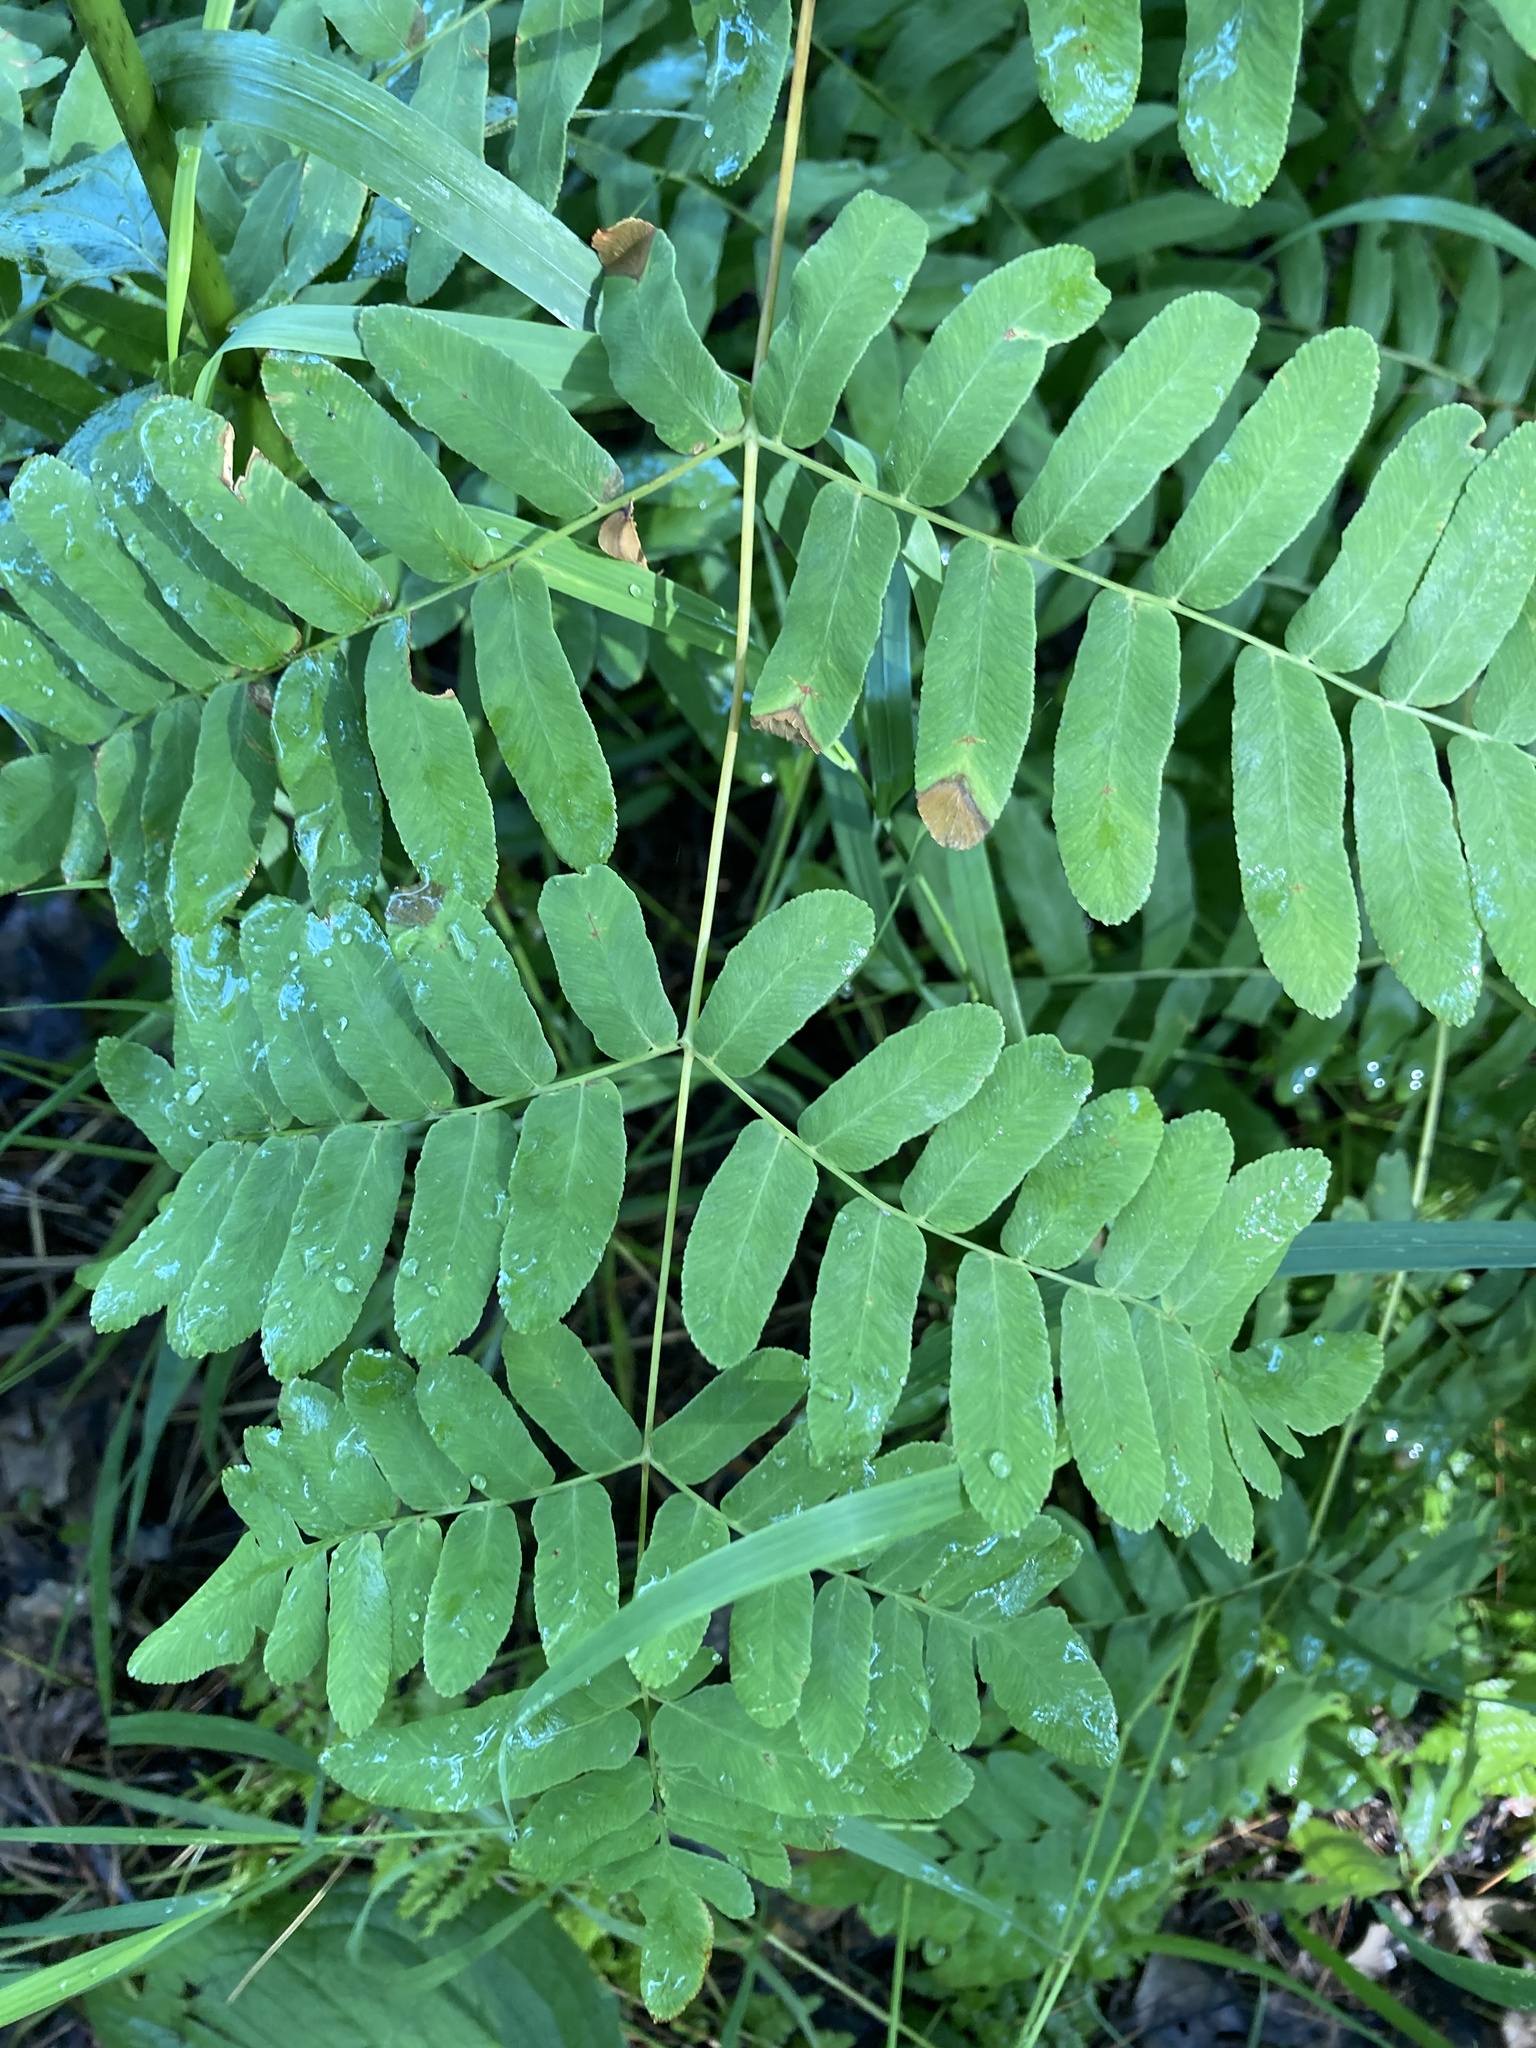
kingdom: Plantae
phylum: Tracheophyta
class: Polypodiopsida
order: Osmundales
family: Osmundaceae
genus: Osmunda
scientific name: Osmunda spectabilis
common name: American royal fern
